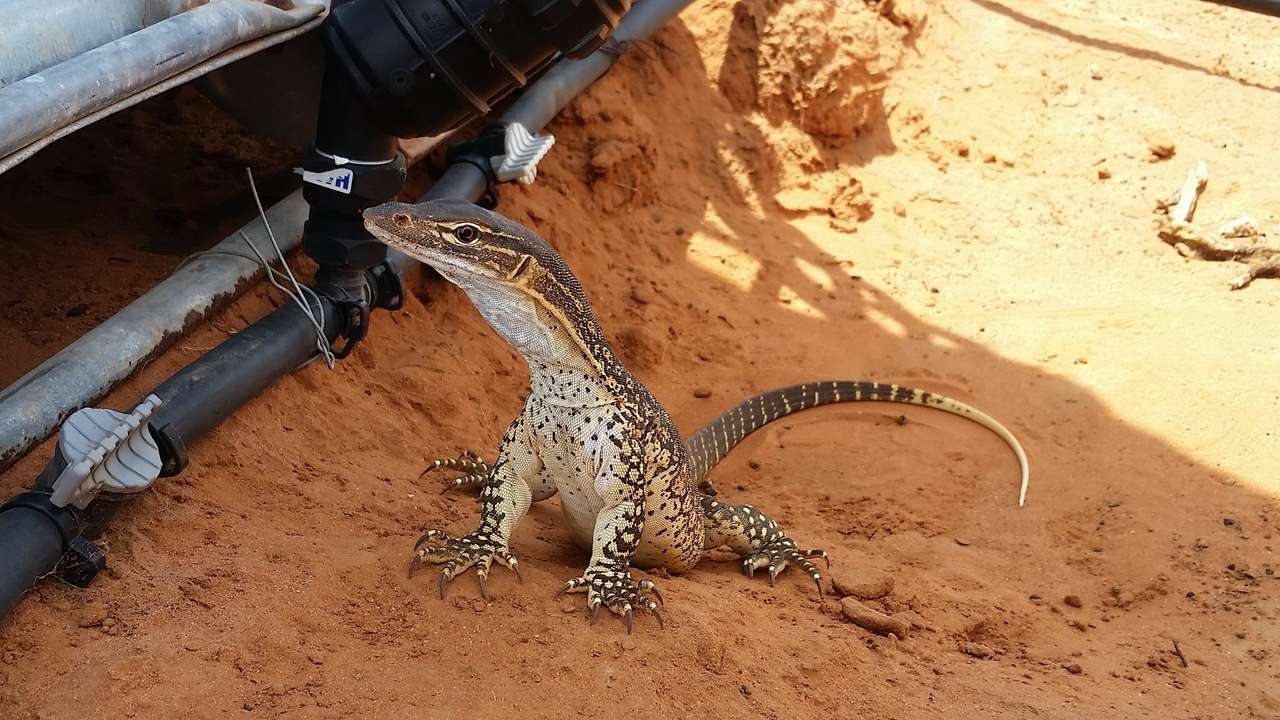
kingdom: Animalia
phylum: Chordata
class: Squamata
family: Varanidae
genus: Varanus
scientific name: Varanus gouldii
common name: Gould's goanna
